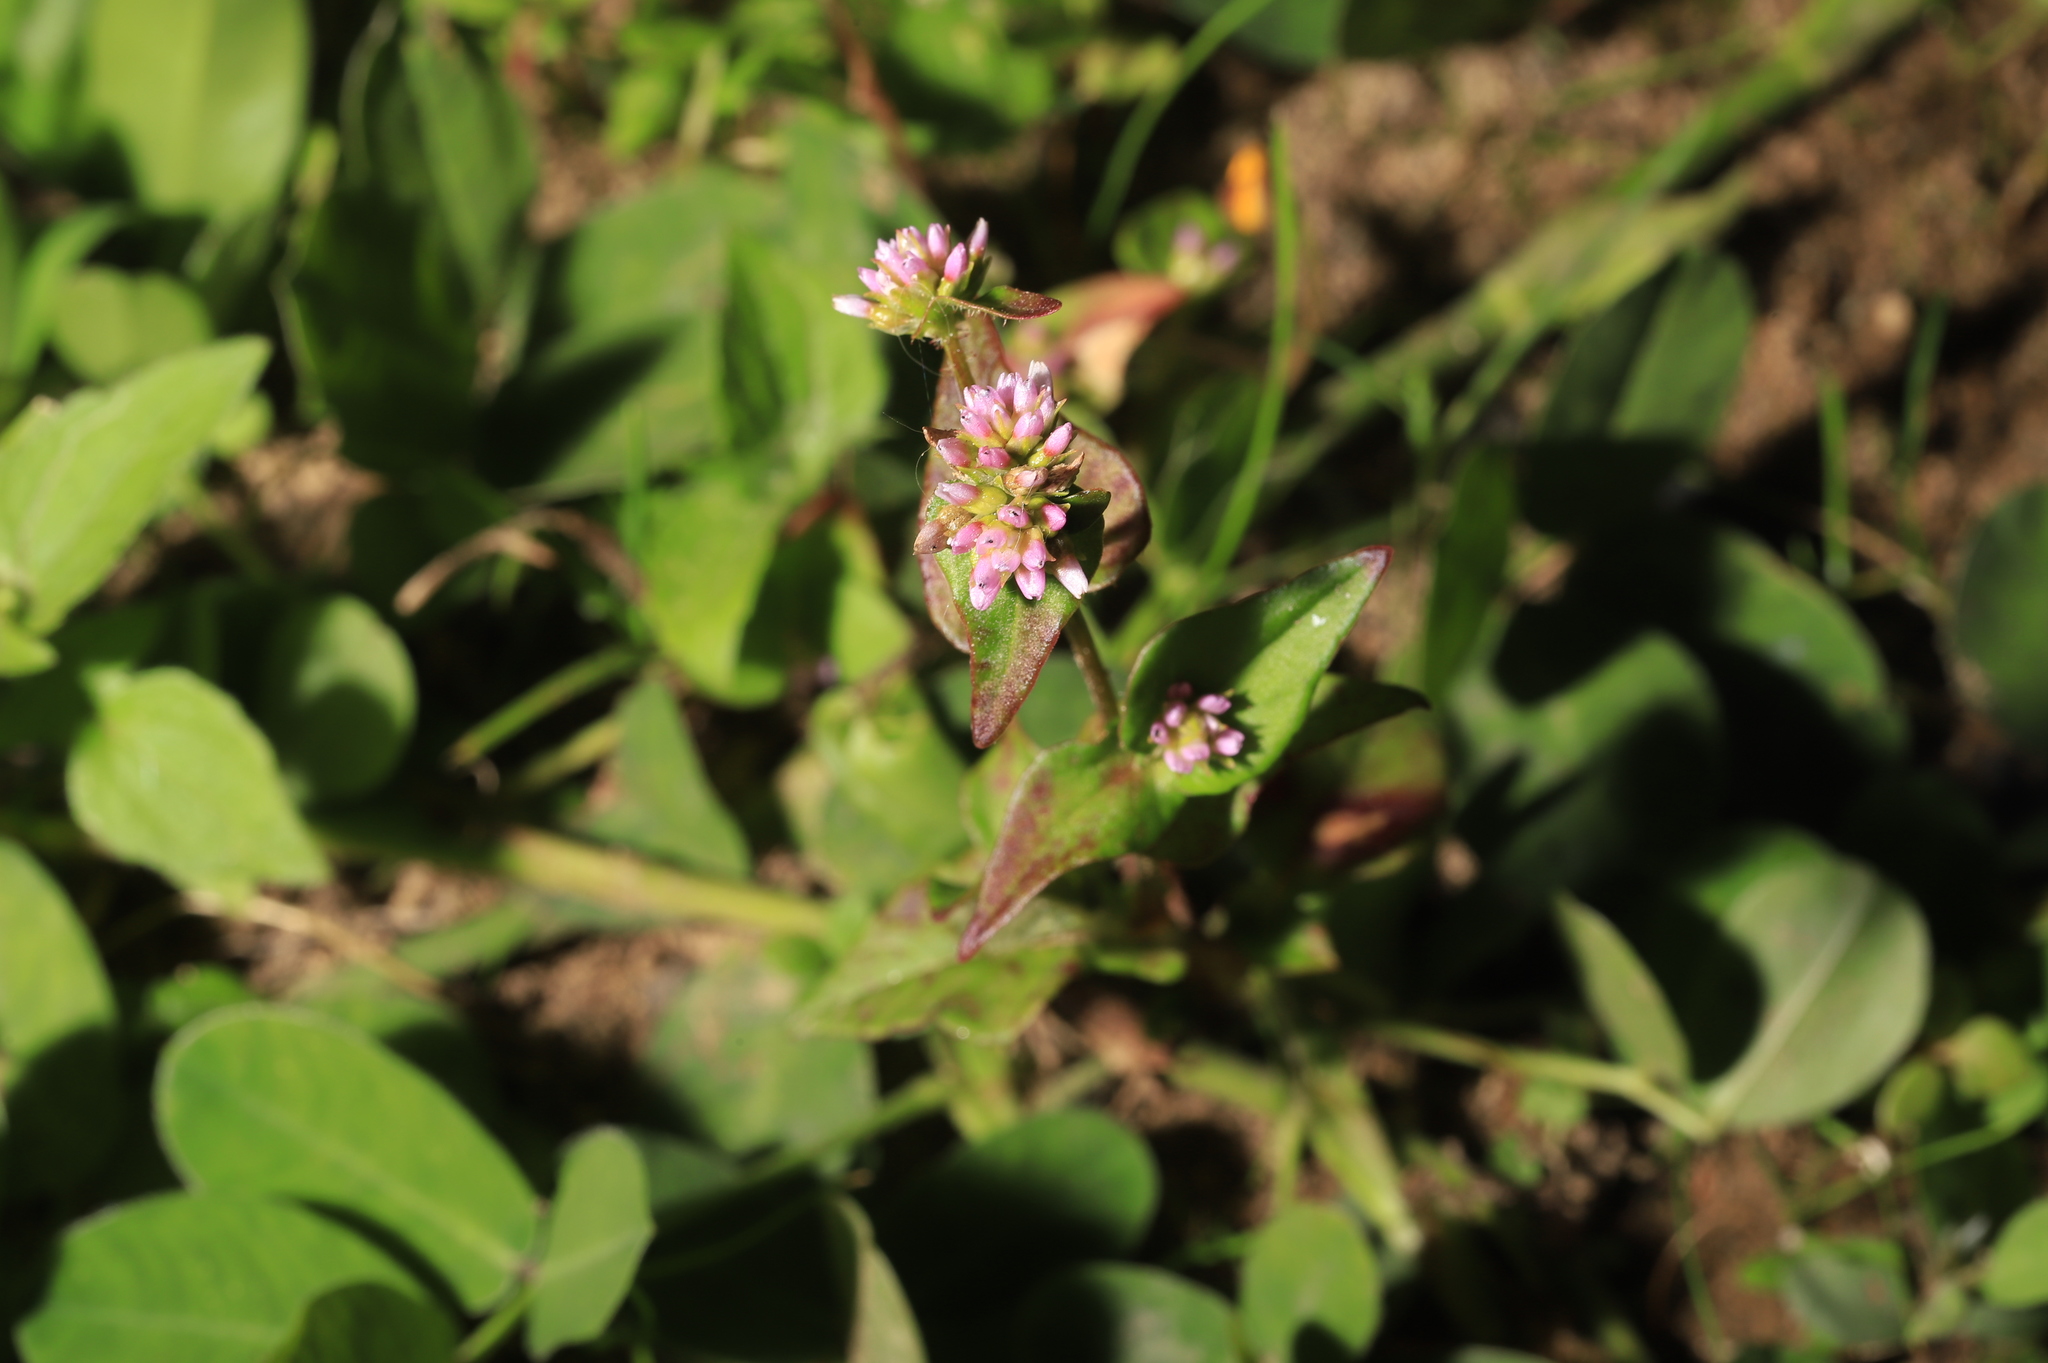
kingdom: Plantae
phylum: Tracheophyta
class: Magnoliopsida
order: Caryophyllales
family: Polygonaceae
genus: Persicaria
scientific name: Persicaria nepalensis
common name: Nepal persicaria
